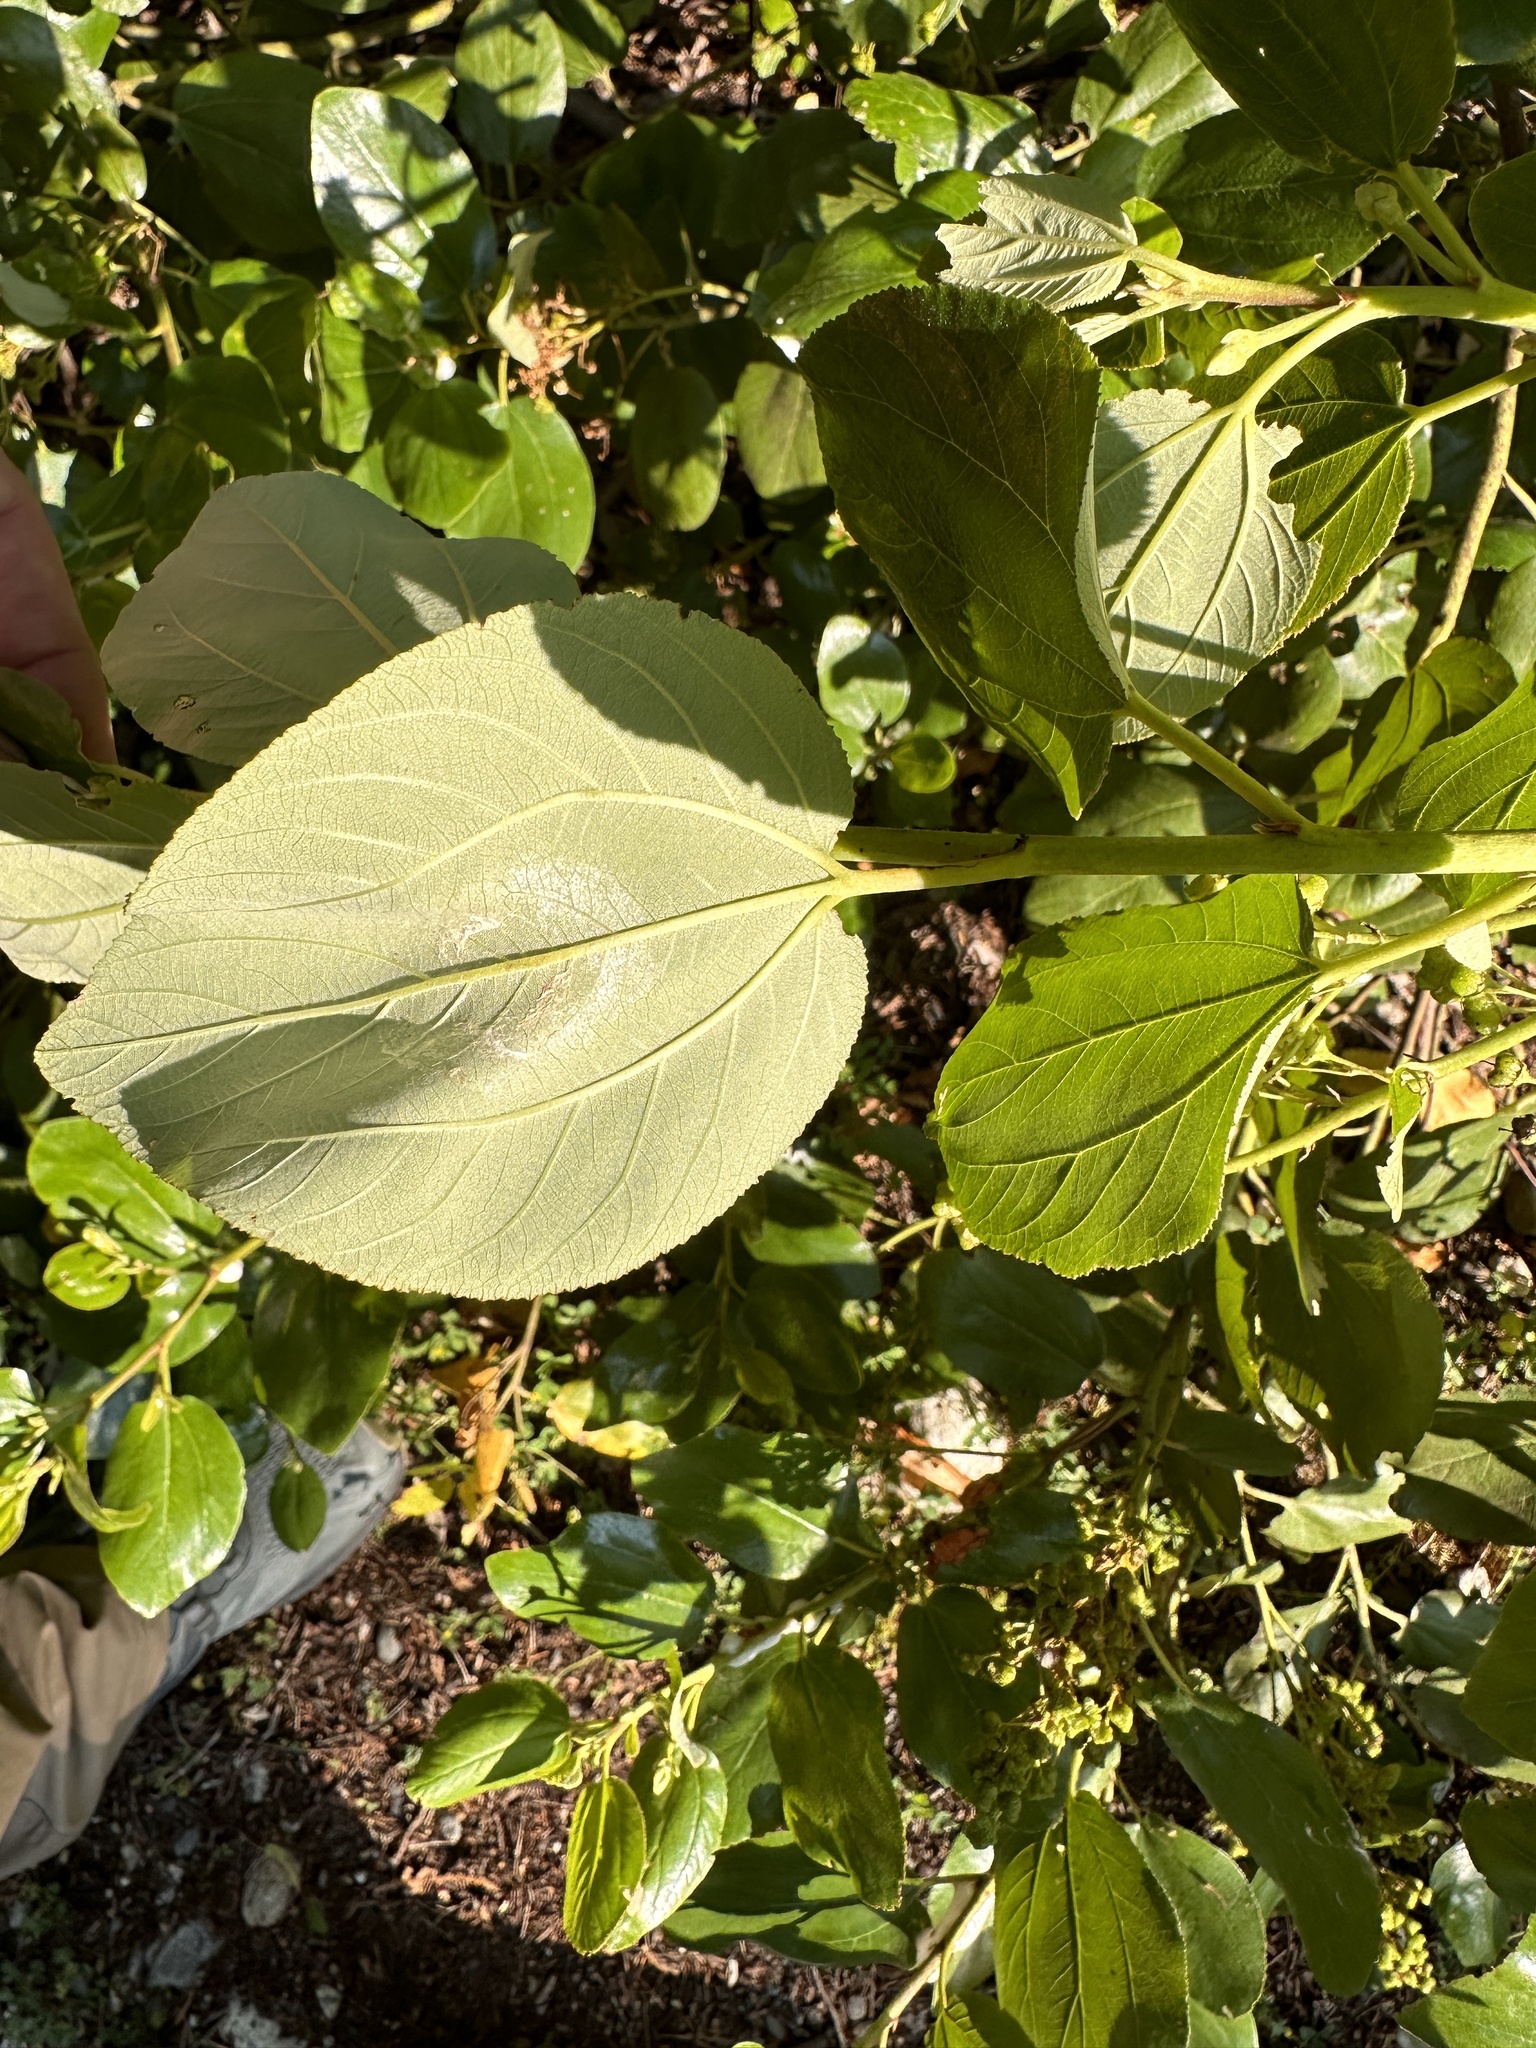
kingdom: Plantae
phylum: Tracheophyta
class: Magnoliopsida
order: Rosales
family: Rhamnaceae
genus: Ceanothus
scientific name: Ceanothus velutinus
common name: Snowbrush
